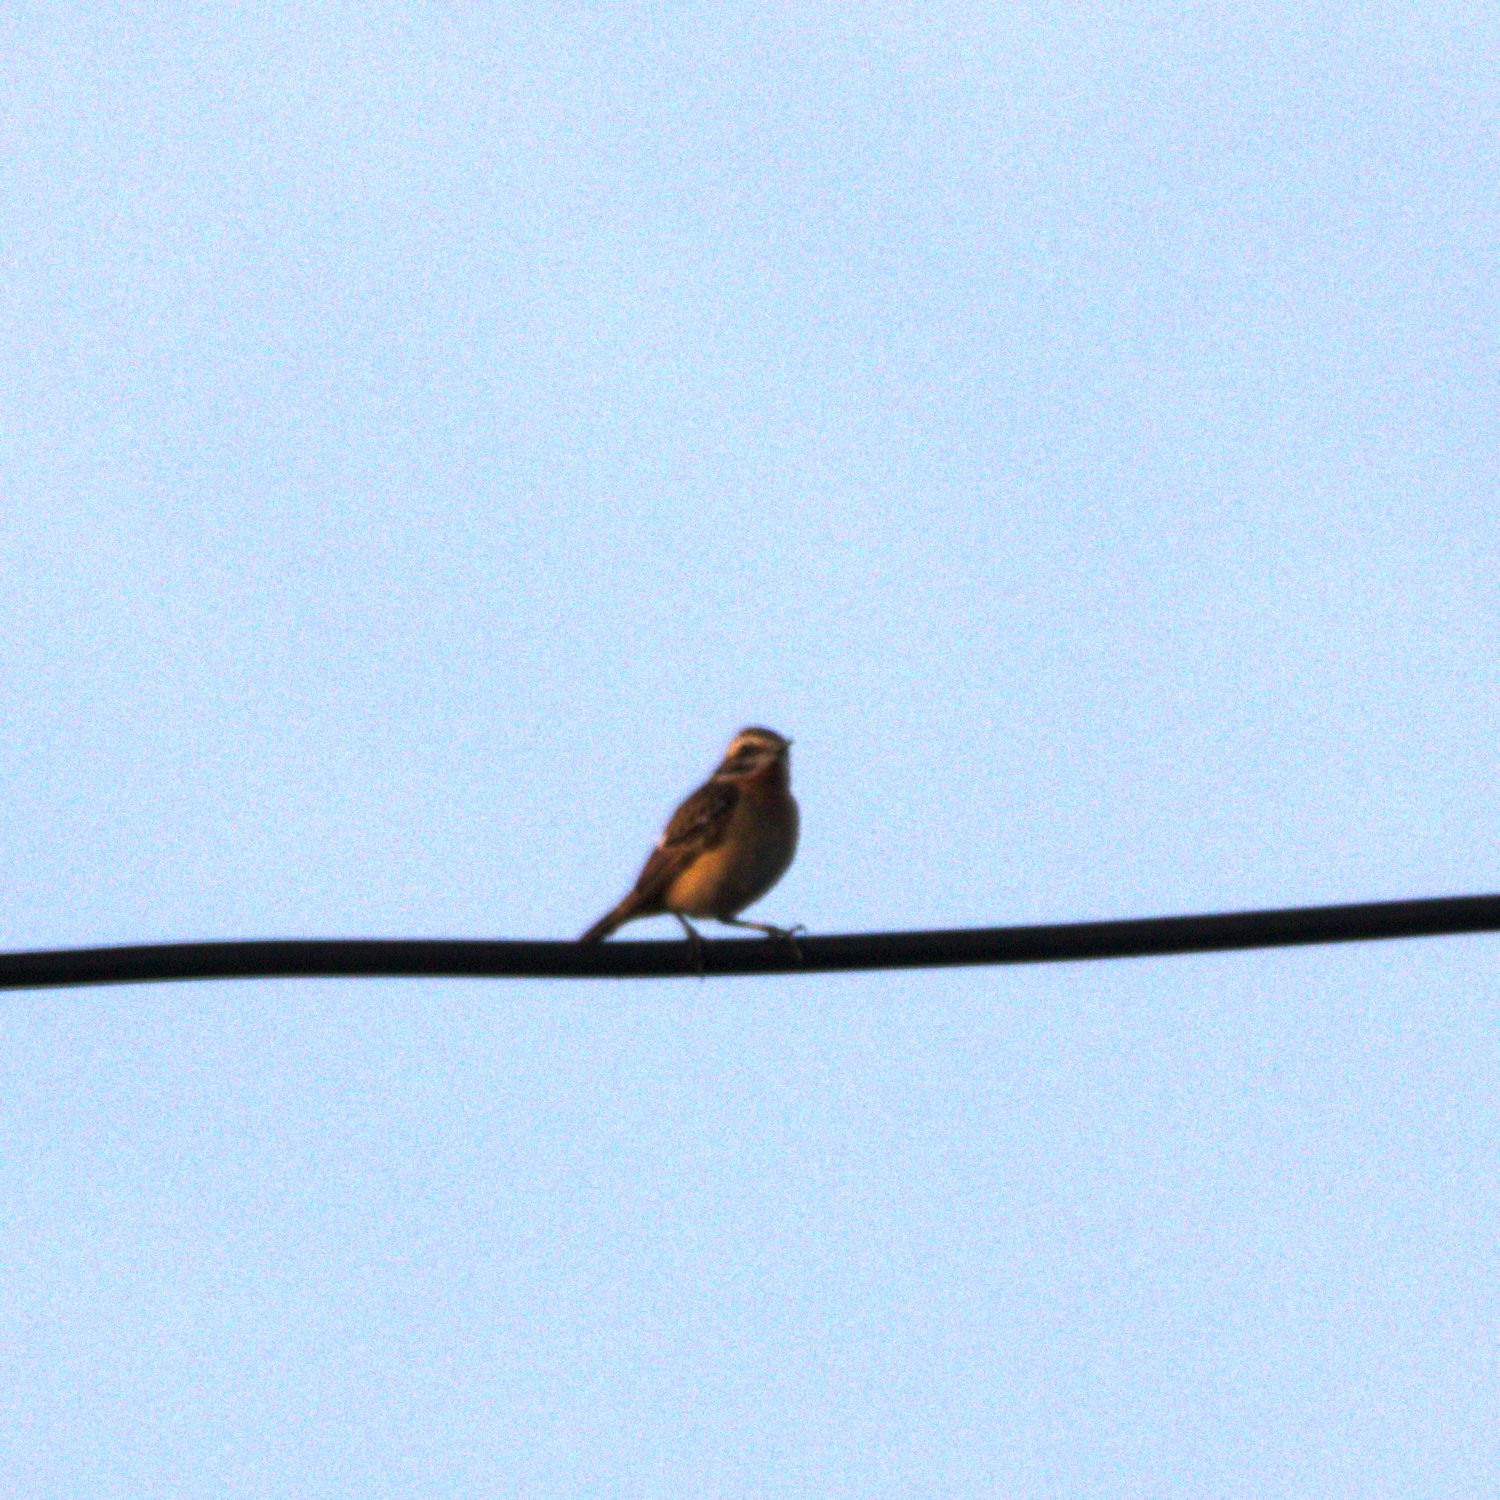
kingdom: Animalia
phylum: Chordata
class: Aves
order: Passeriformes
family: Muscicapidae
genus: Saxicola
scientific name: Saxicola rubetra
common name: Whinchat
